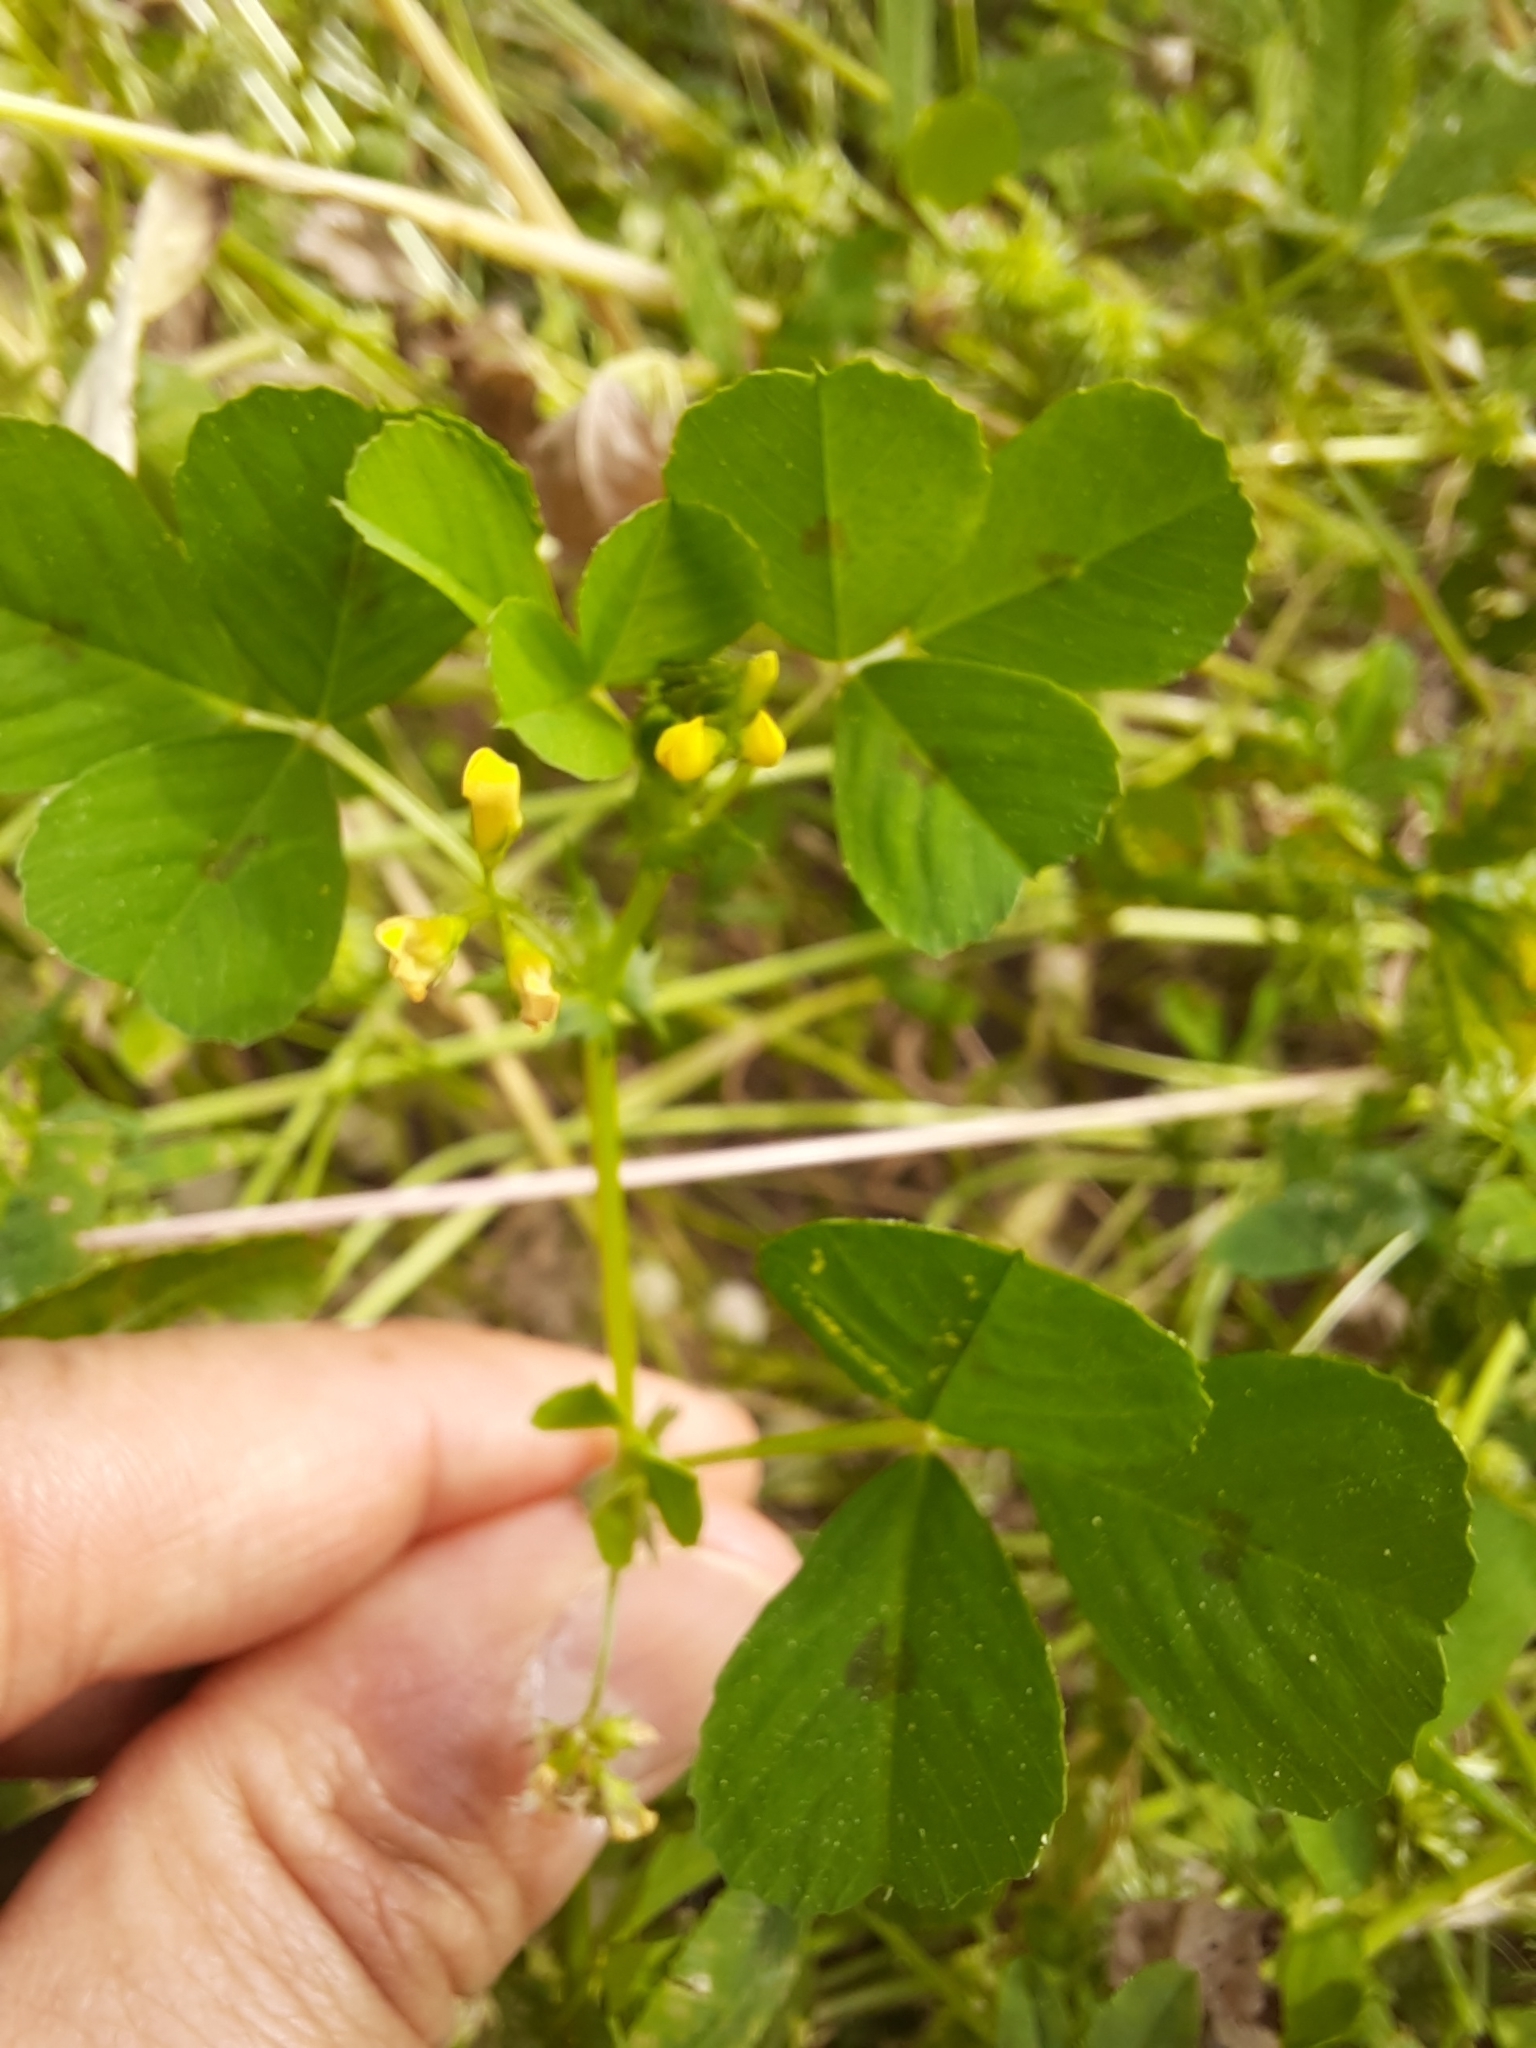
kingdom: Plantae
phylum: Tracheophyta
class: Magnoliopsida
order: Fabales
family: Fabaceae
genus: Medicago
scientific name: Medicago arabica
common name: Spotted medick
